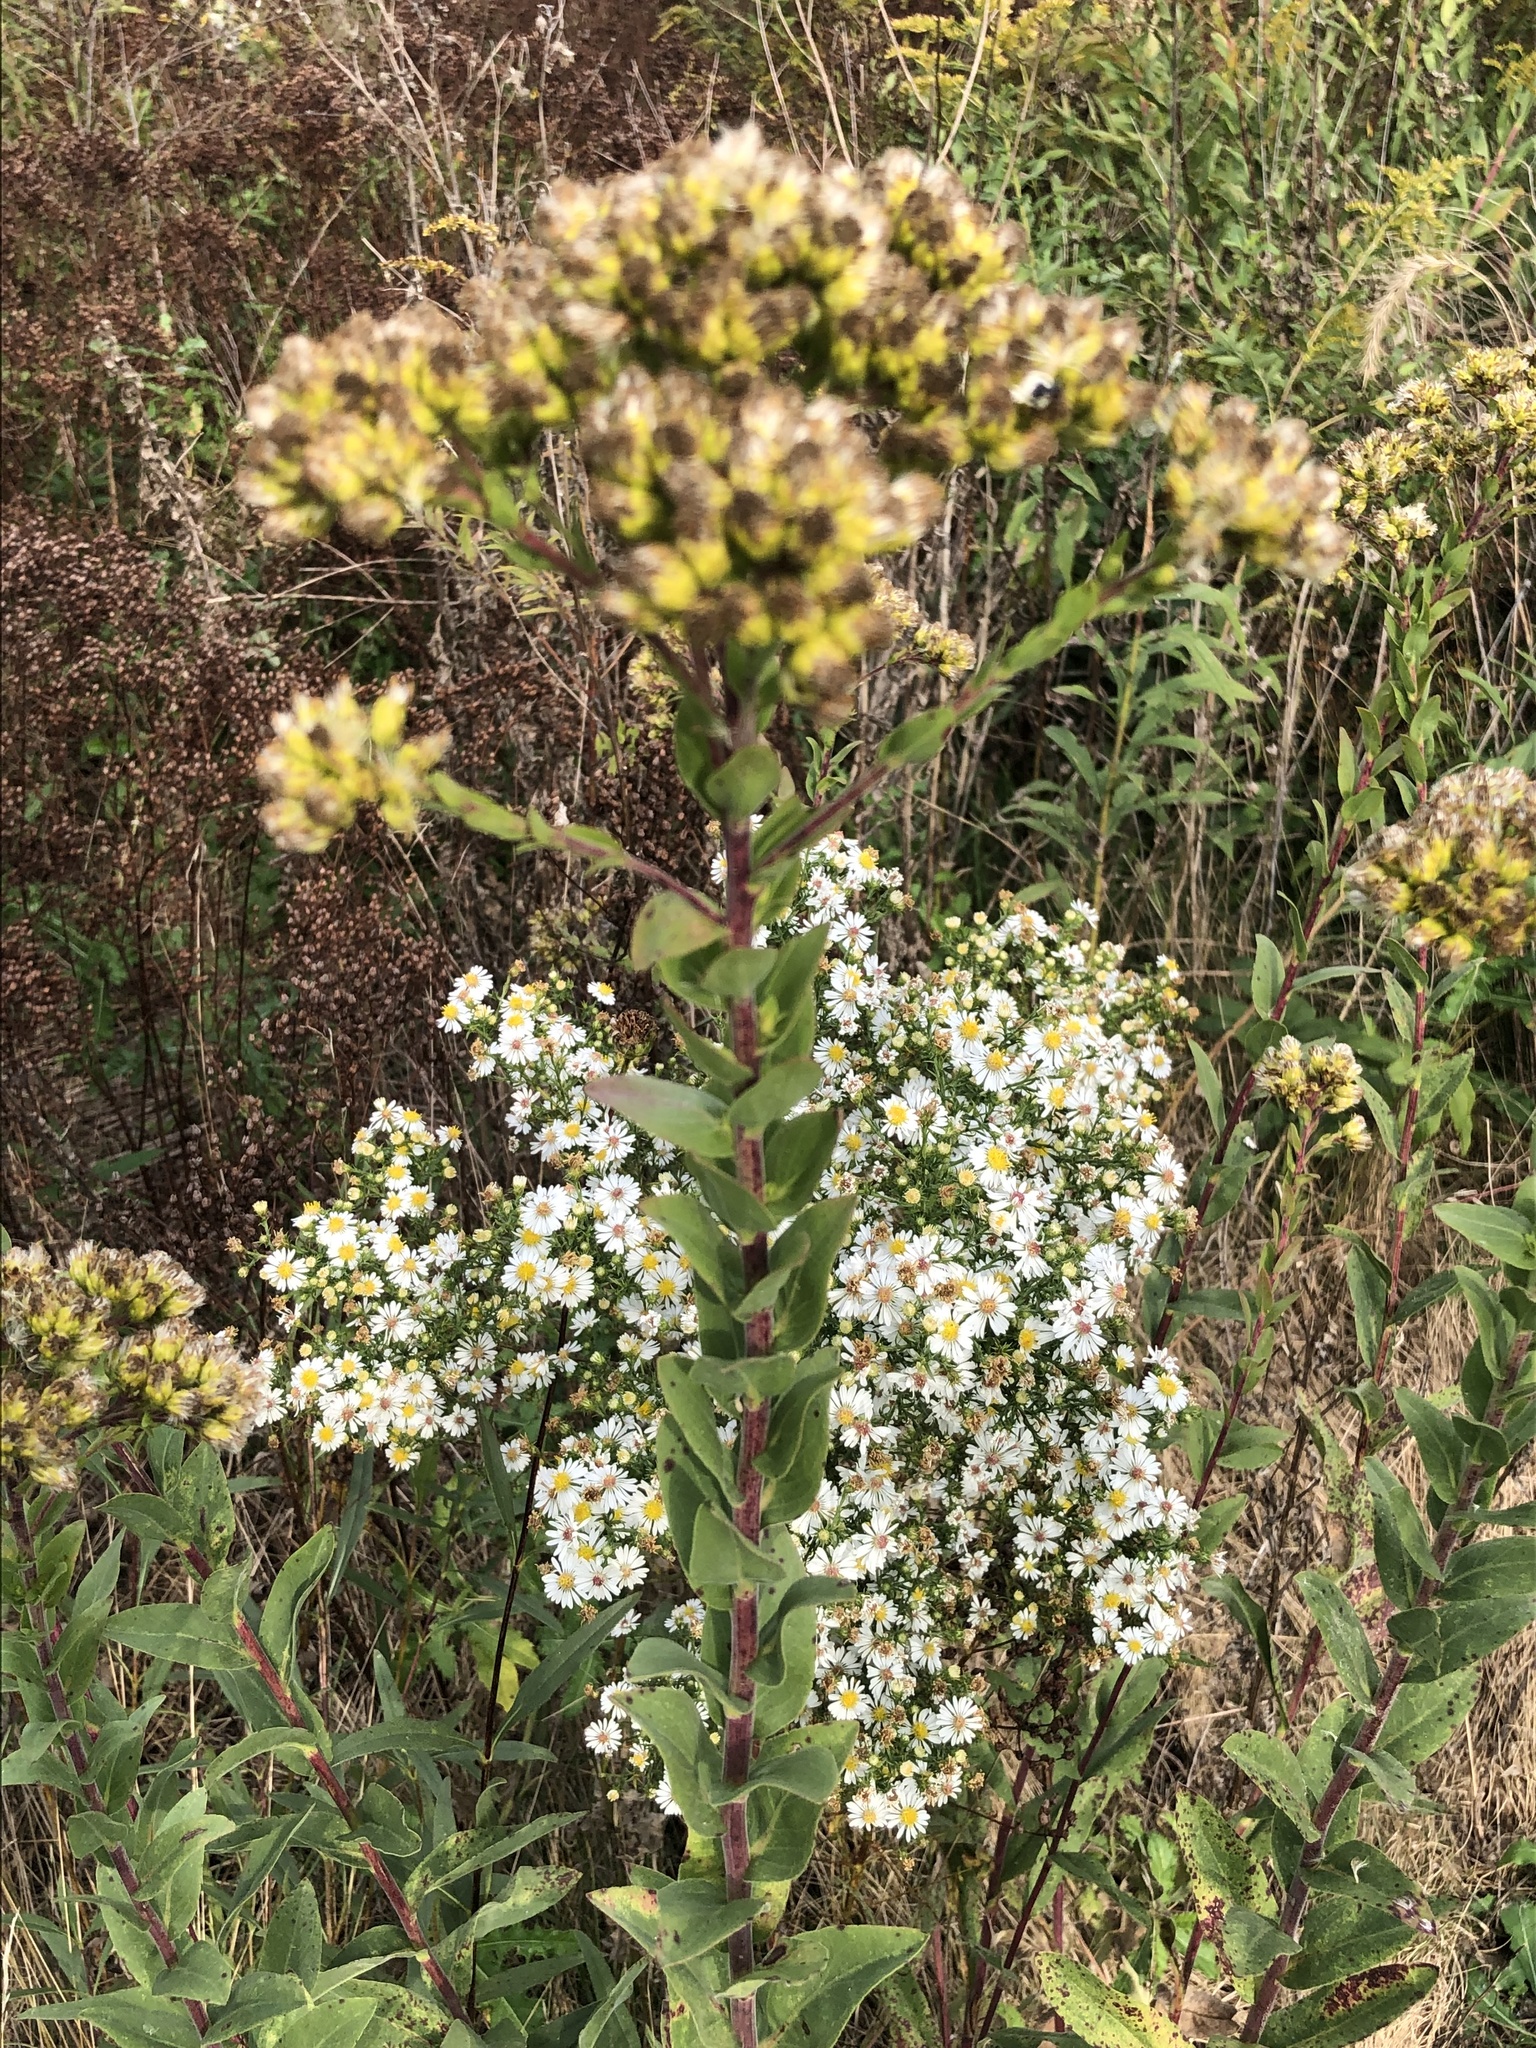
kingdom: Plantae
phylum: Tracheophyta
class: Magnoliopsida
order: Asterales
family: Asteraceae
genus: Solidago
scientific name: Solidago rigida
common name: Rigid goldenrod
